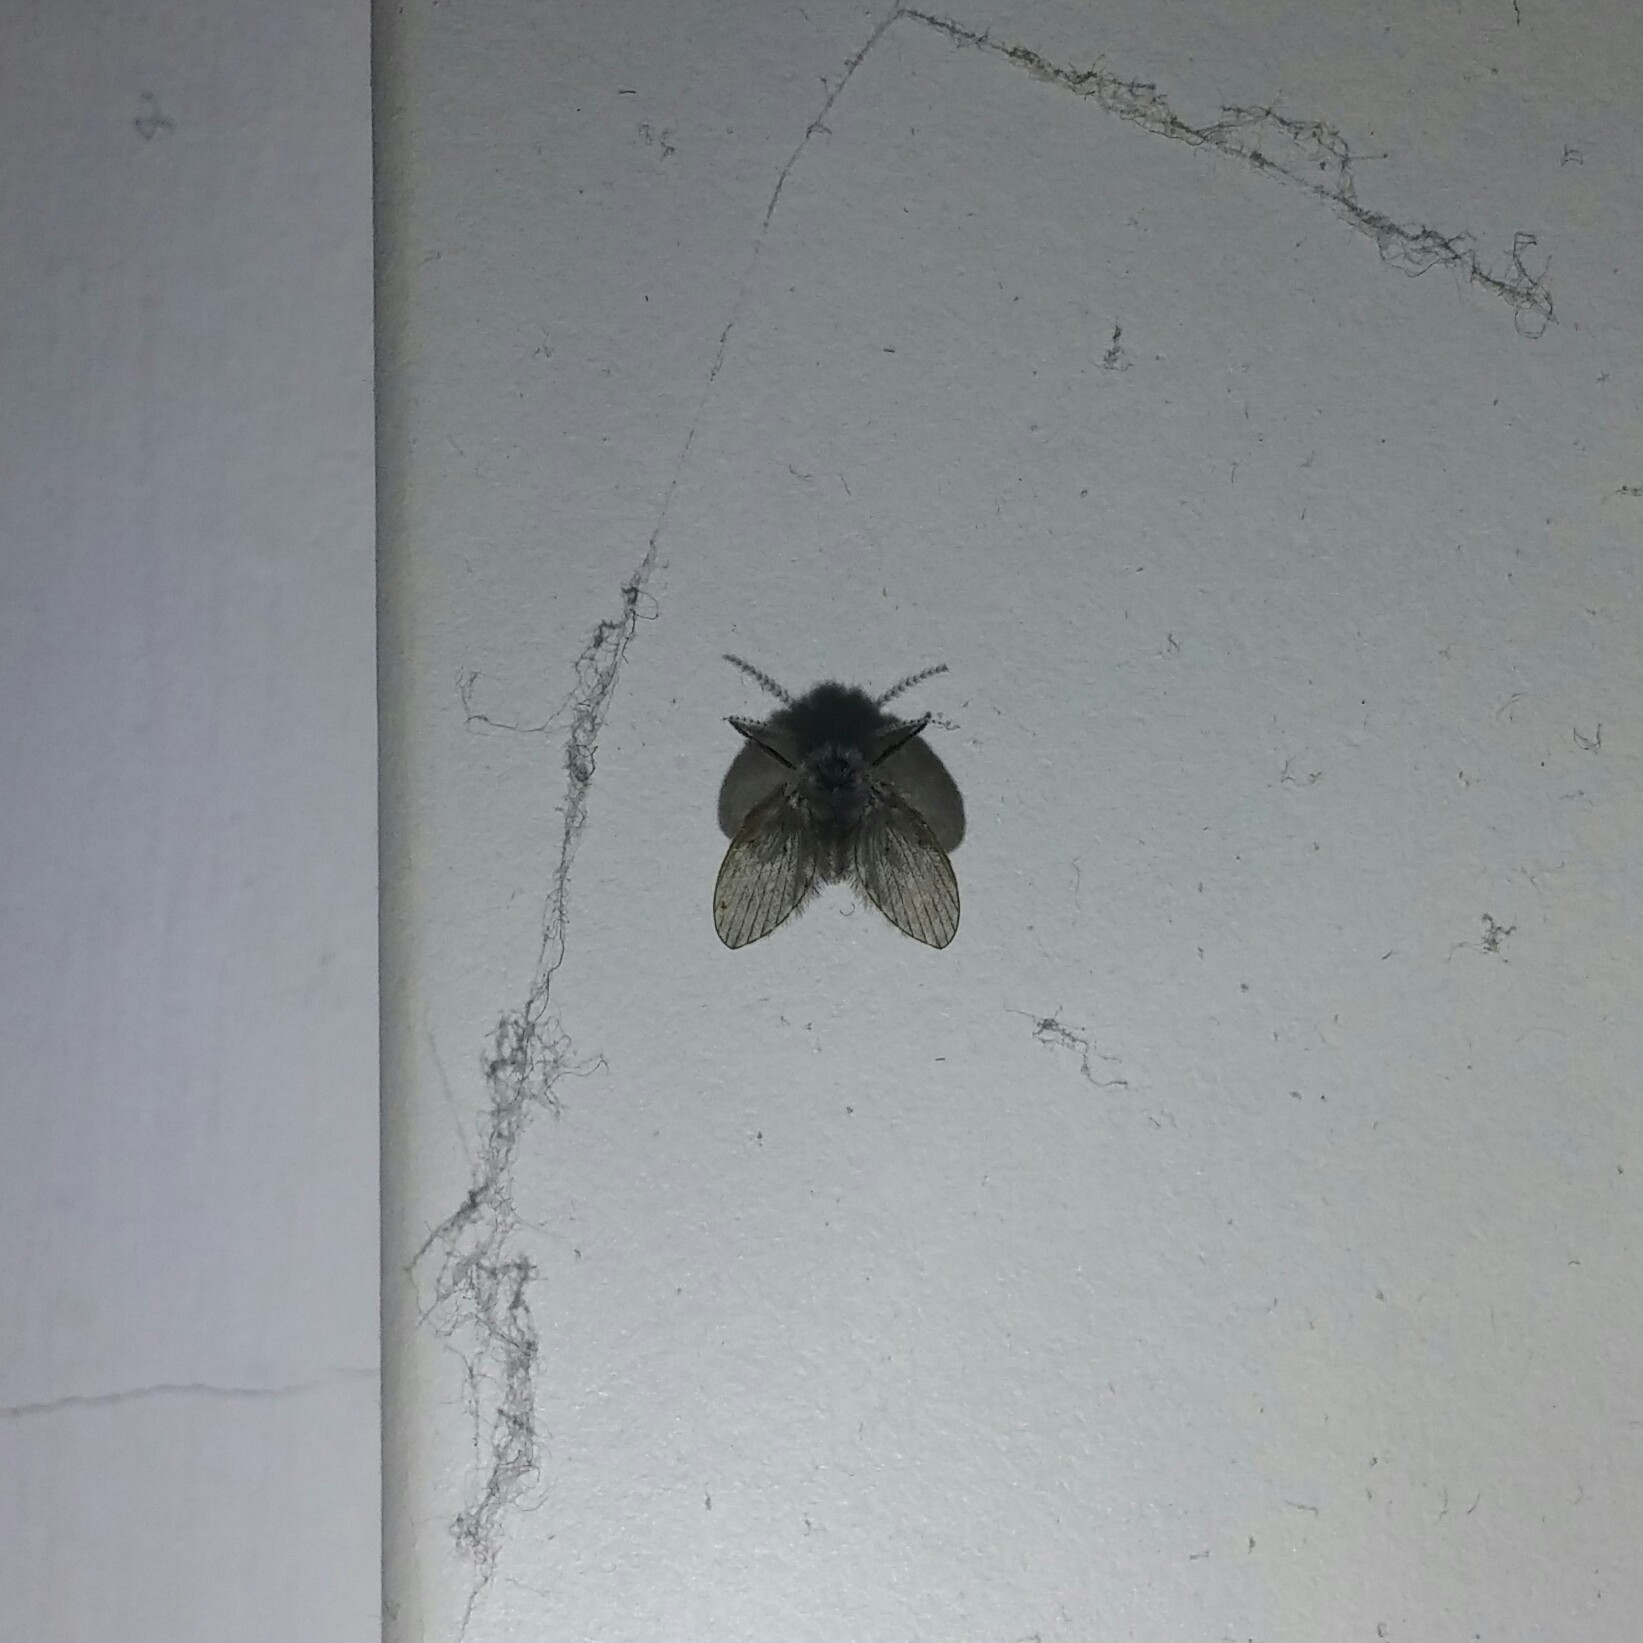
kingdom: Animalia
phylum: Arthropoda
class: Insecta
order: Diptera
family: Psychodidae
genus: Clogmia
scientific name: Clogmia albipunctatus
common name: White-spotted moth fly
